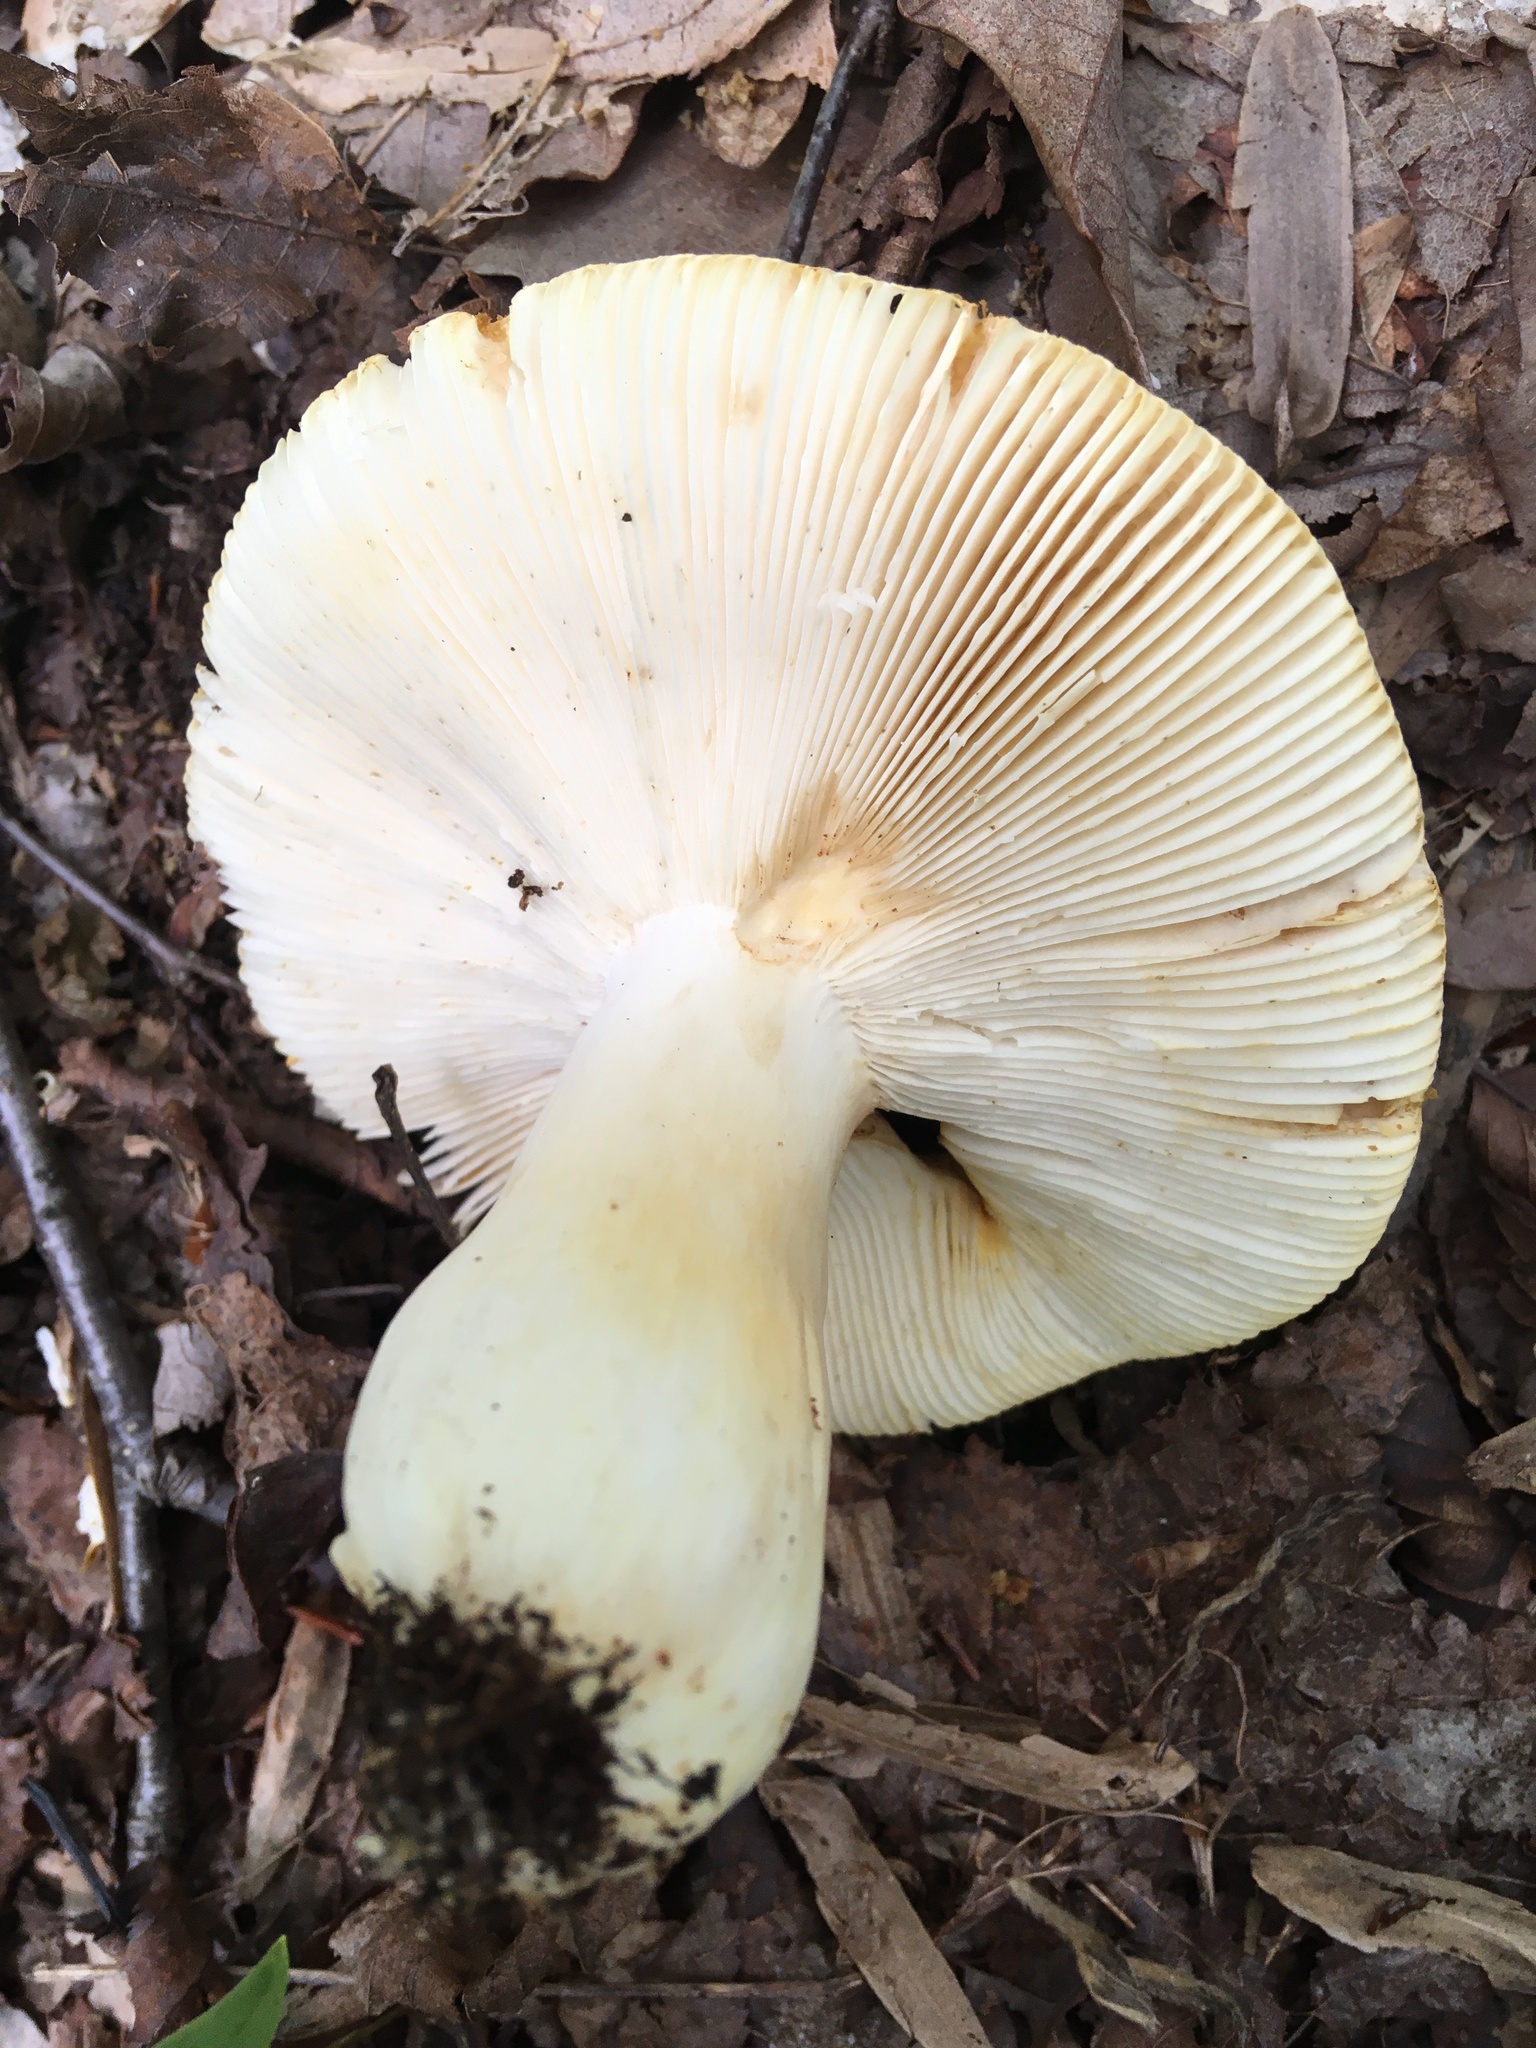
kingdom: Fungi
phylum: Basidiomycota
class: Agaricomycetes
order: Russulales
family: Russulaceae
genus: Russula
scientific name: Russula ochroleucoides
